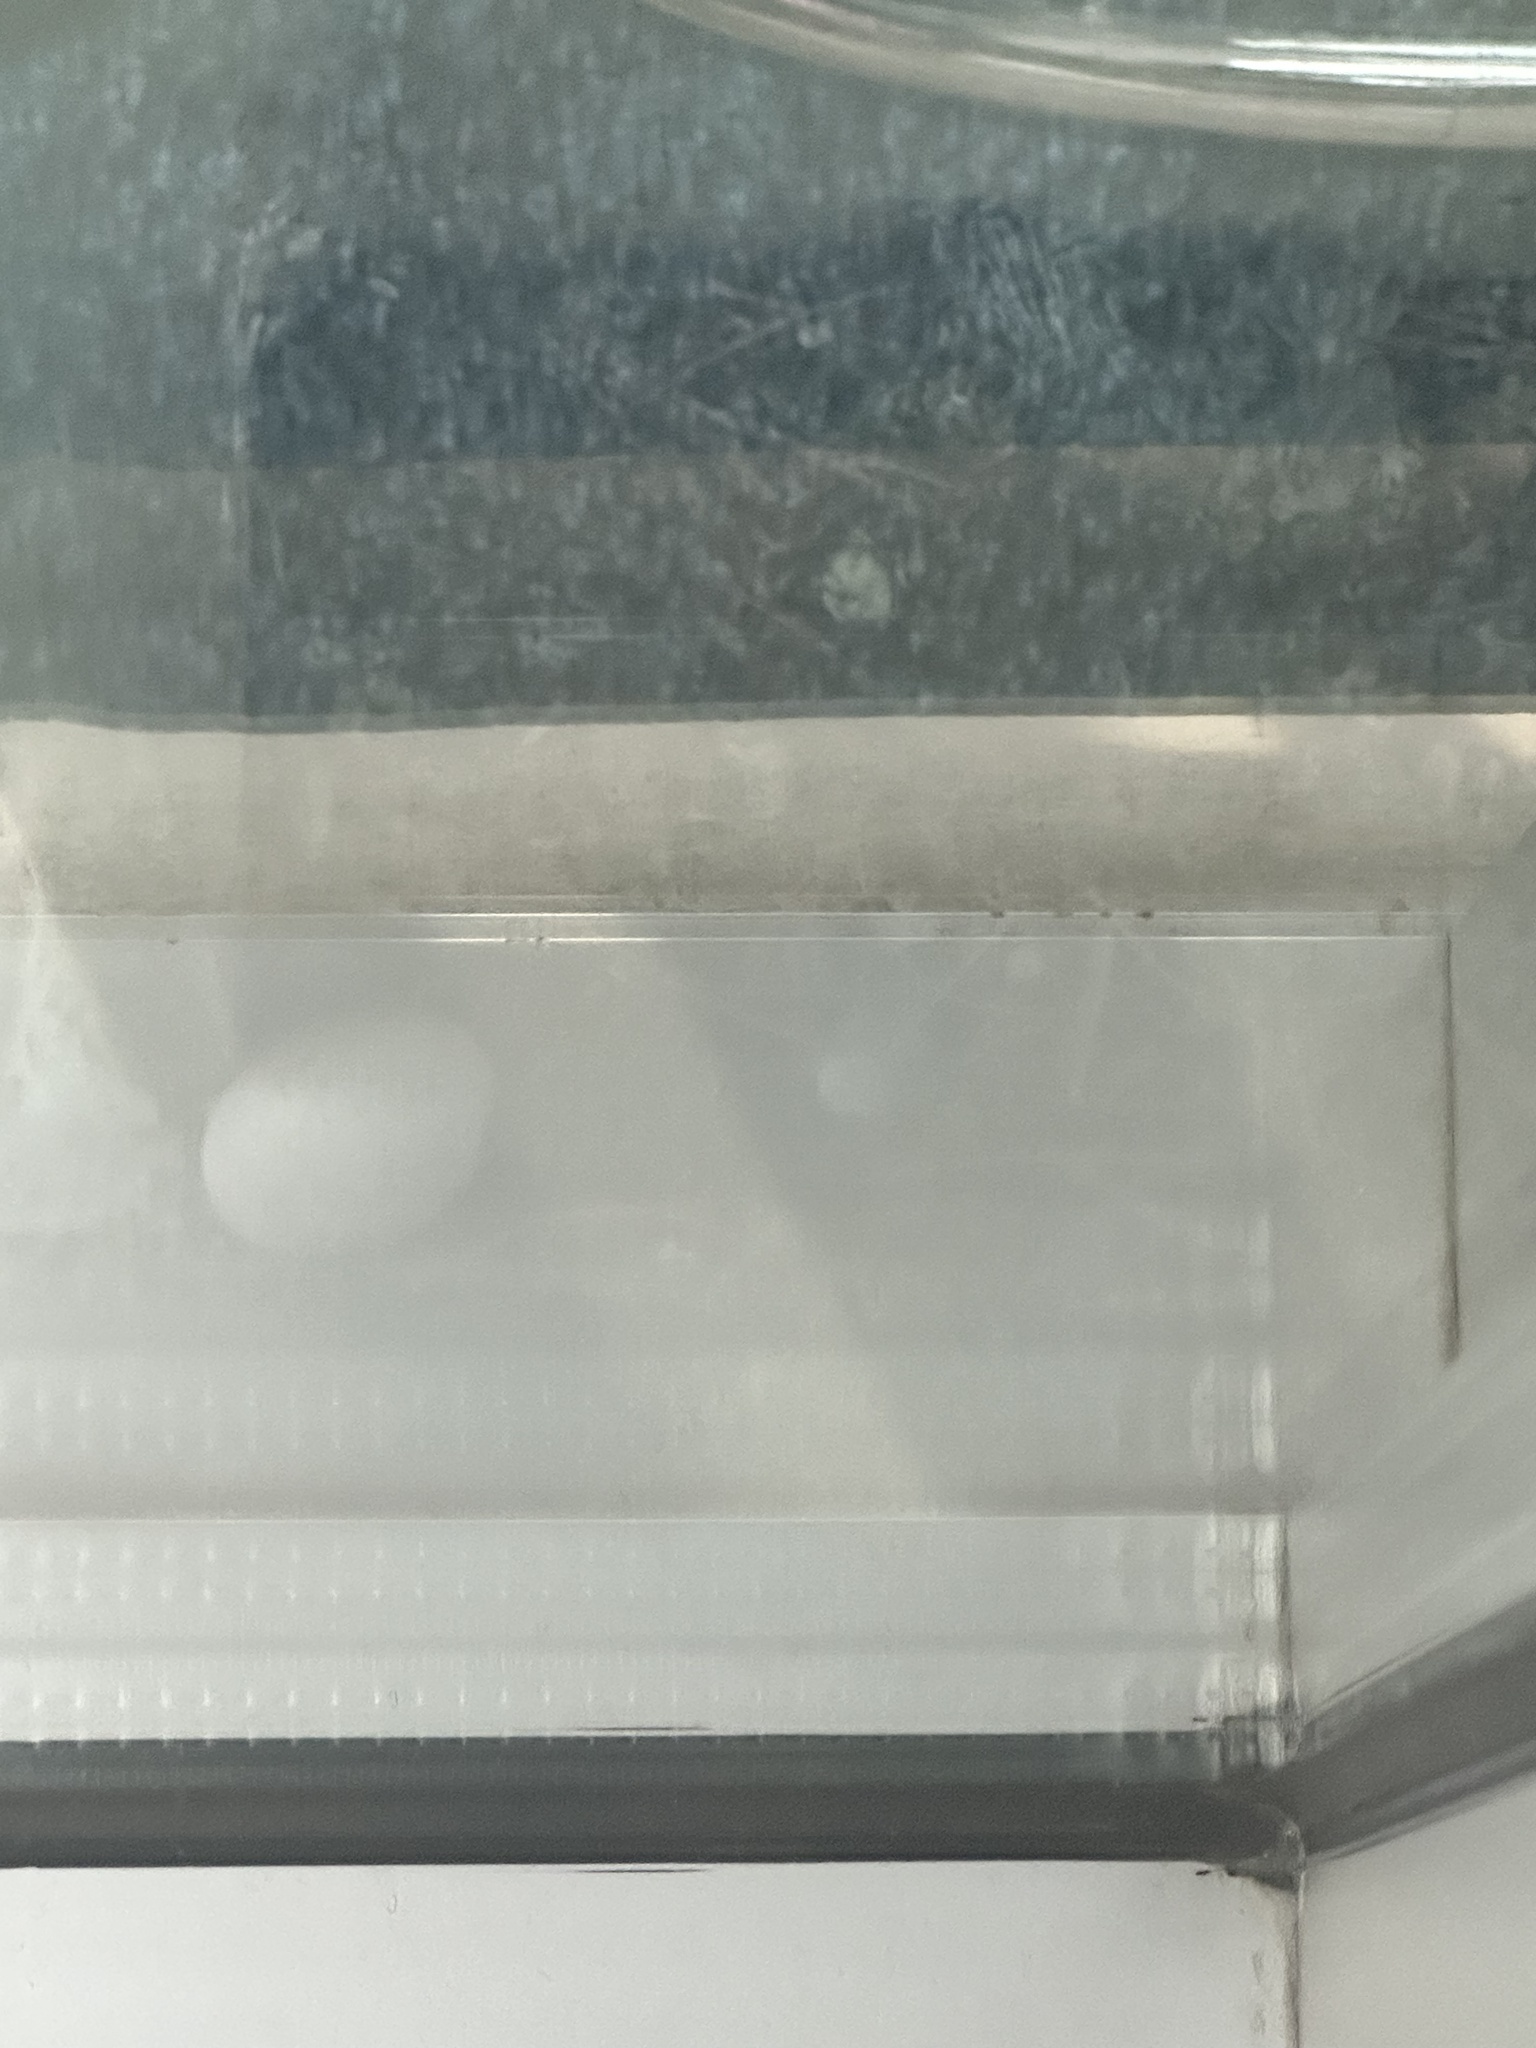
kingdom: Animalia
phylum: Chordata
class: Aves
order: Columbiformes
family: Columbidae
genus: Columba
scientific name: Columba livia
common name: Rock pigeon
